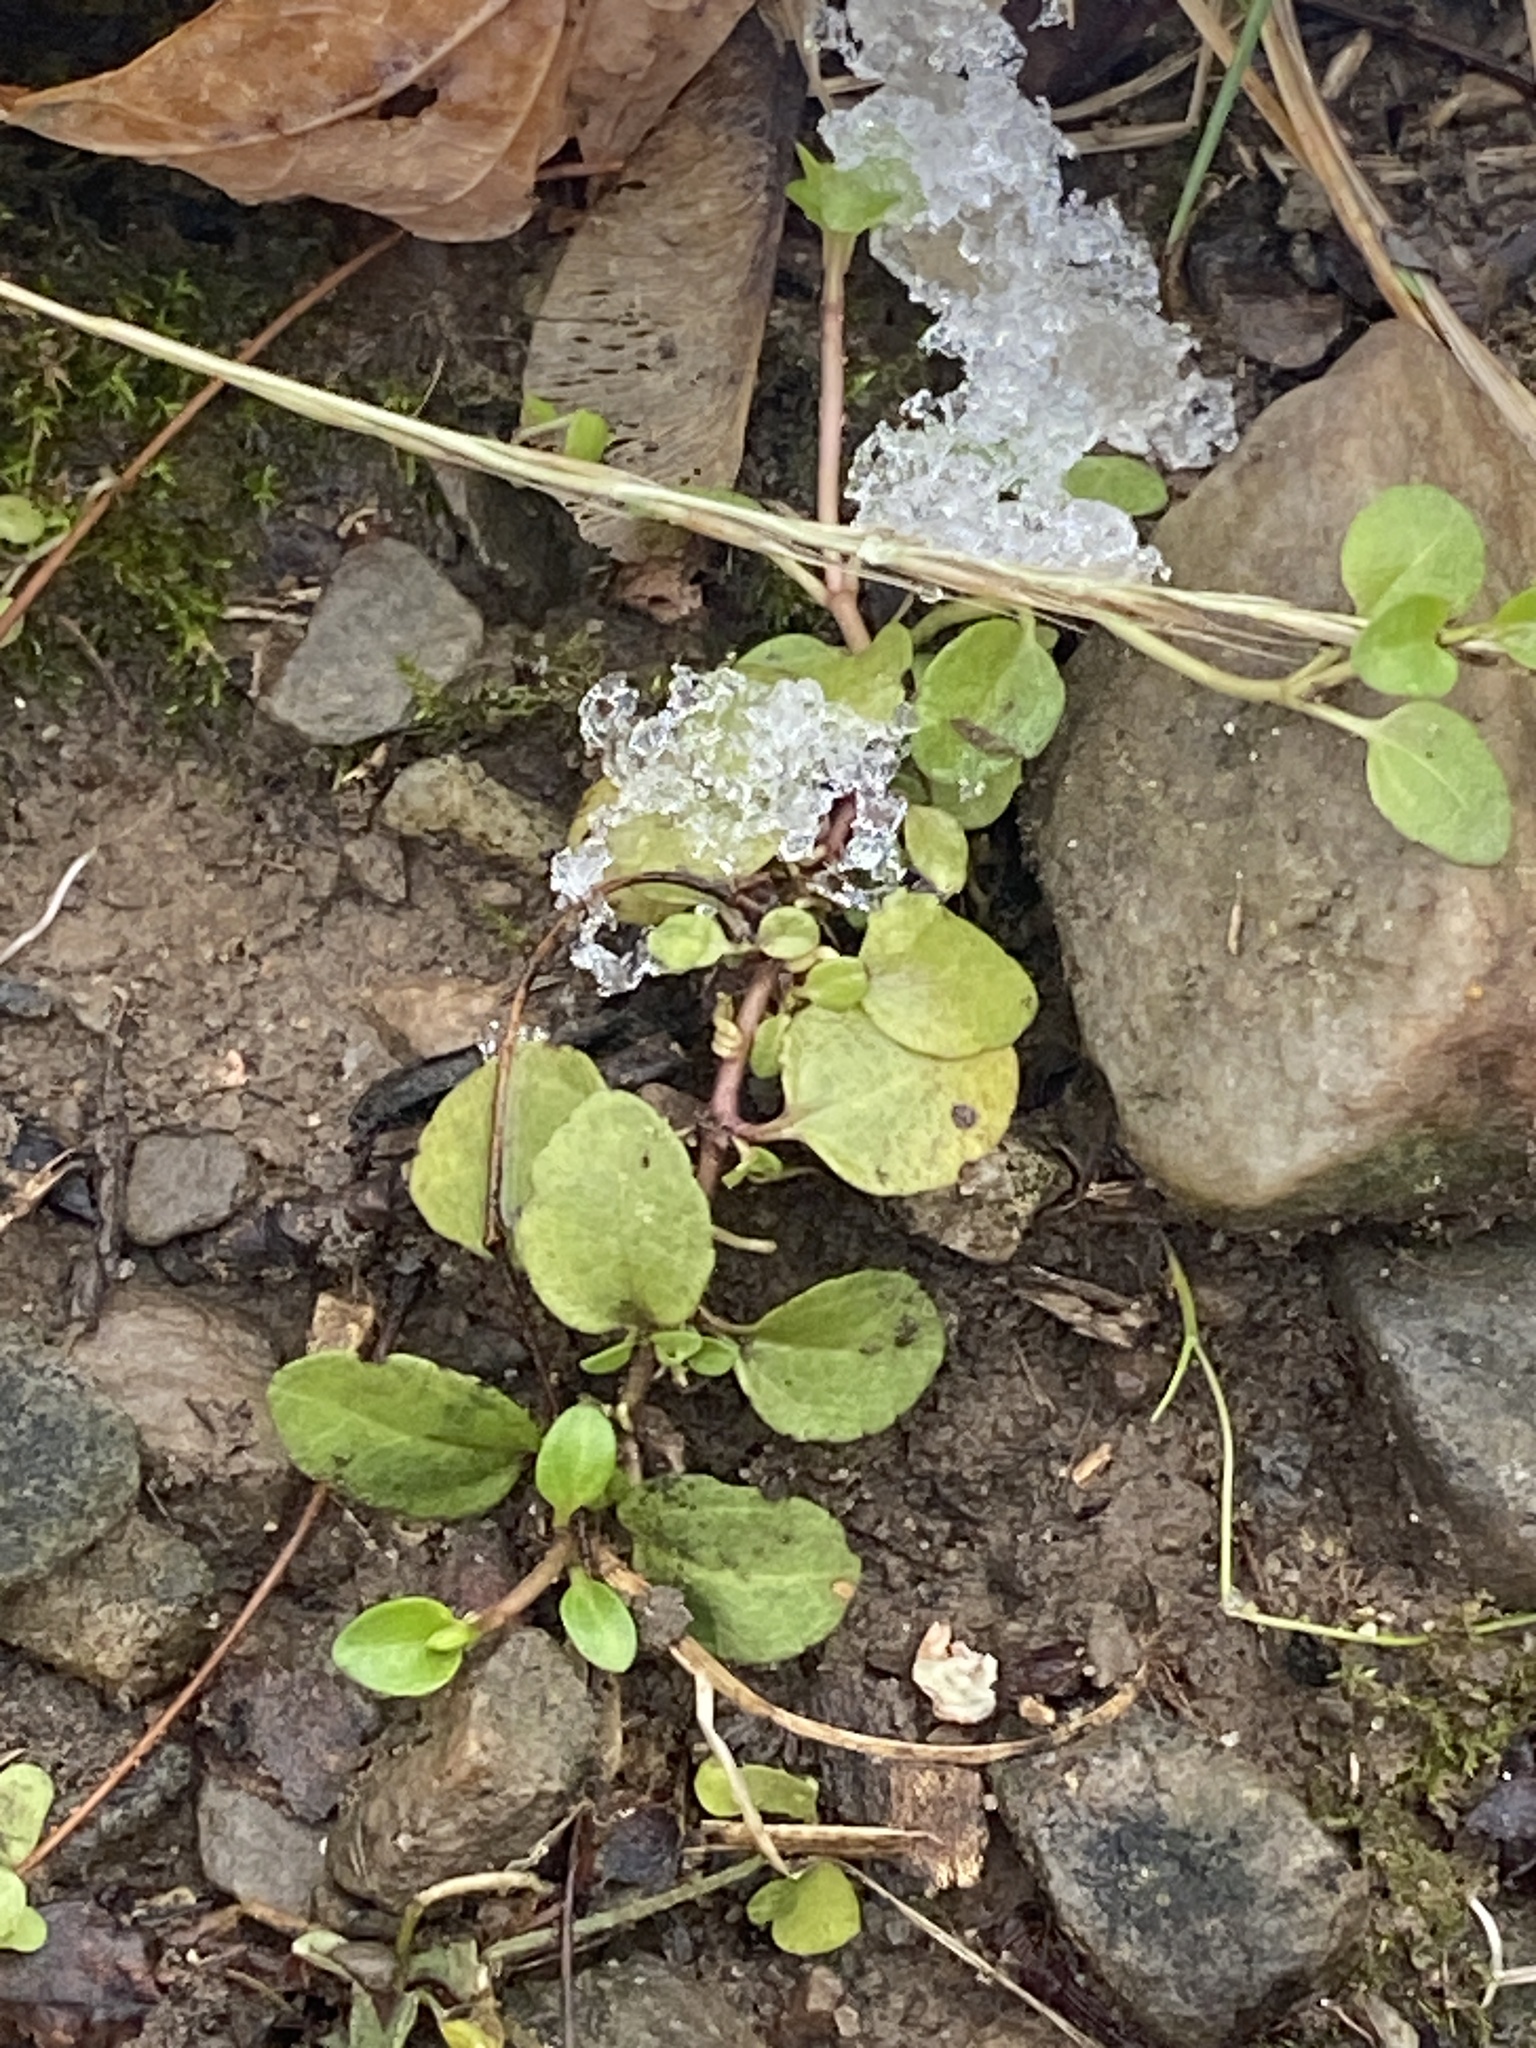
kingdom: Plantae
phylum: Tracheophyta
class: Magnoliopsida
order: Lamiales
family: Plantaginaceae
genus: Veronica
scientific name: Veronica serpyllifolia
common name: Thyme-leaved speedwell
